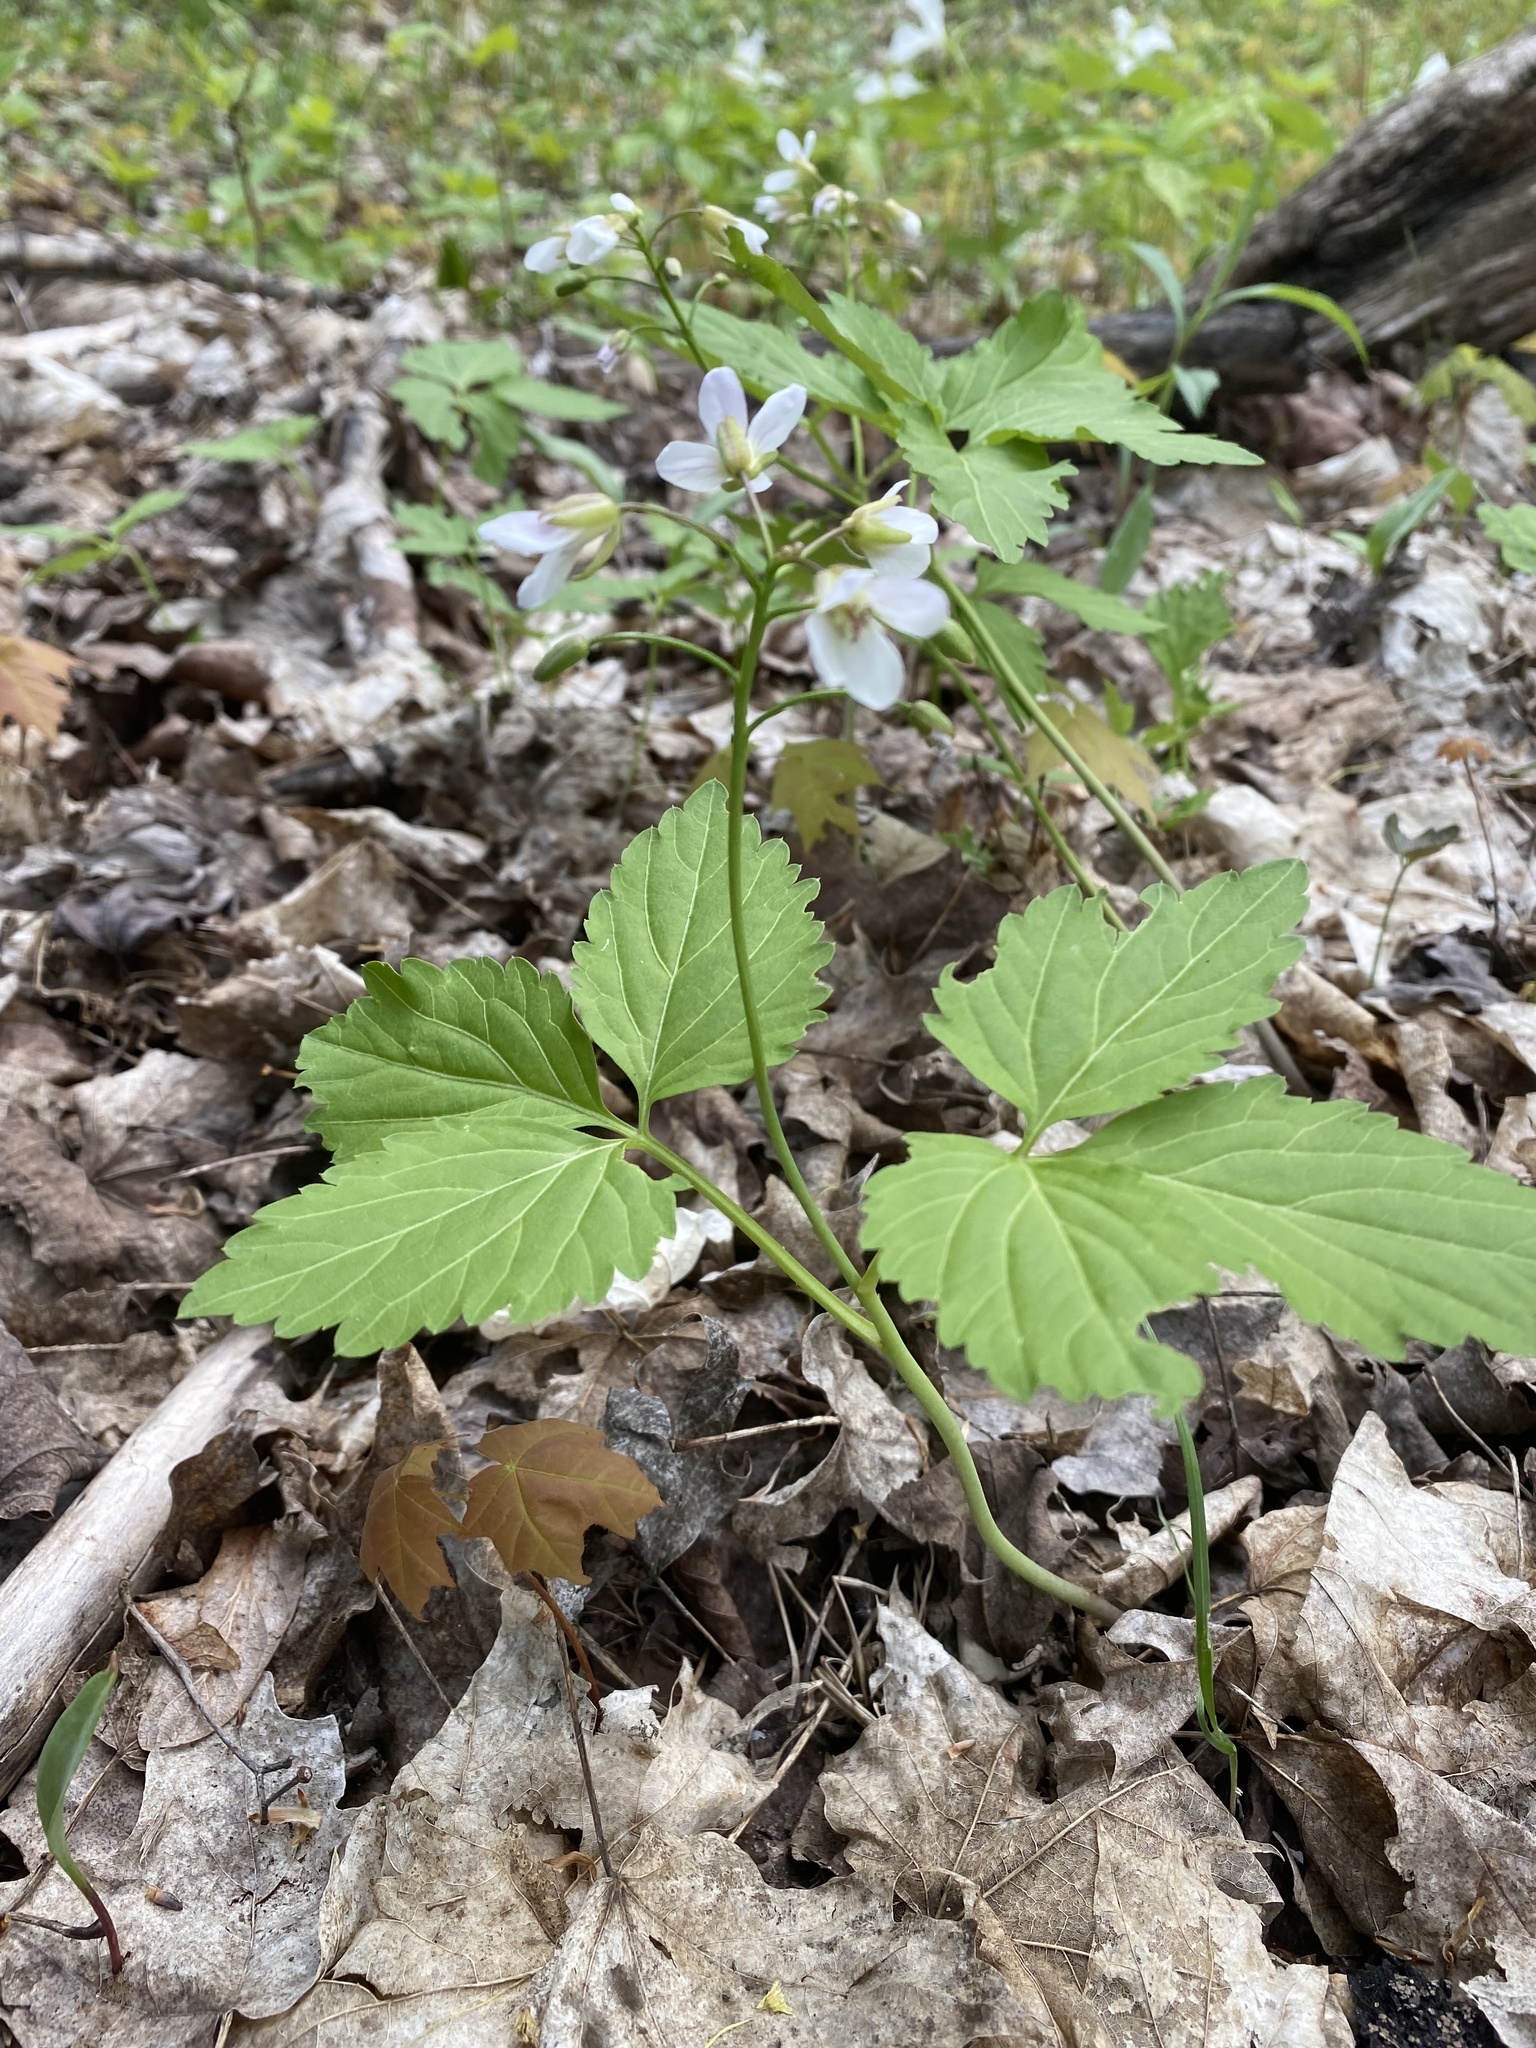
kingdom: Plantae
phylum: Tracheophyta
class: Magnoliopsida
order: Brassicales
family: Brassicaceae
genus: Cardamine
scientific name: Cardamine diphylla
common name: Broad-leaved toothwort
